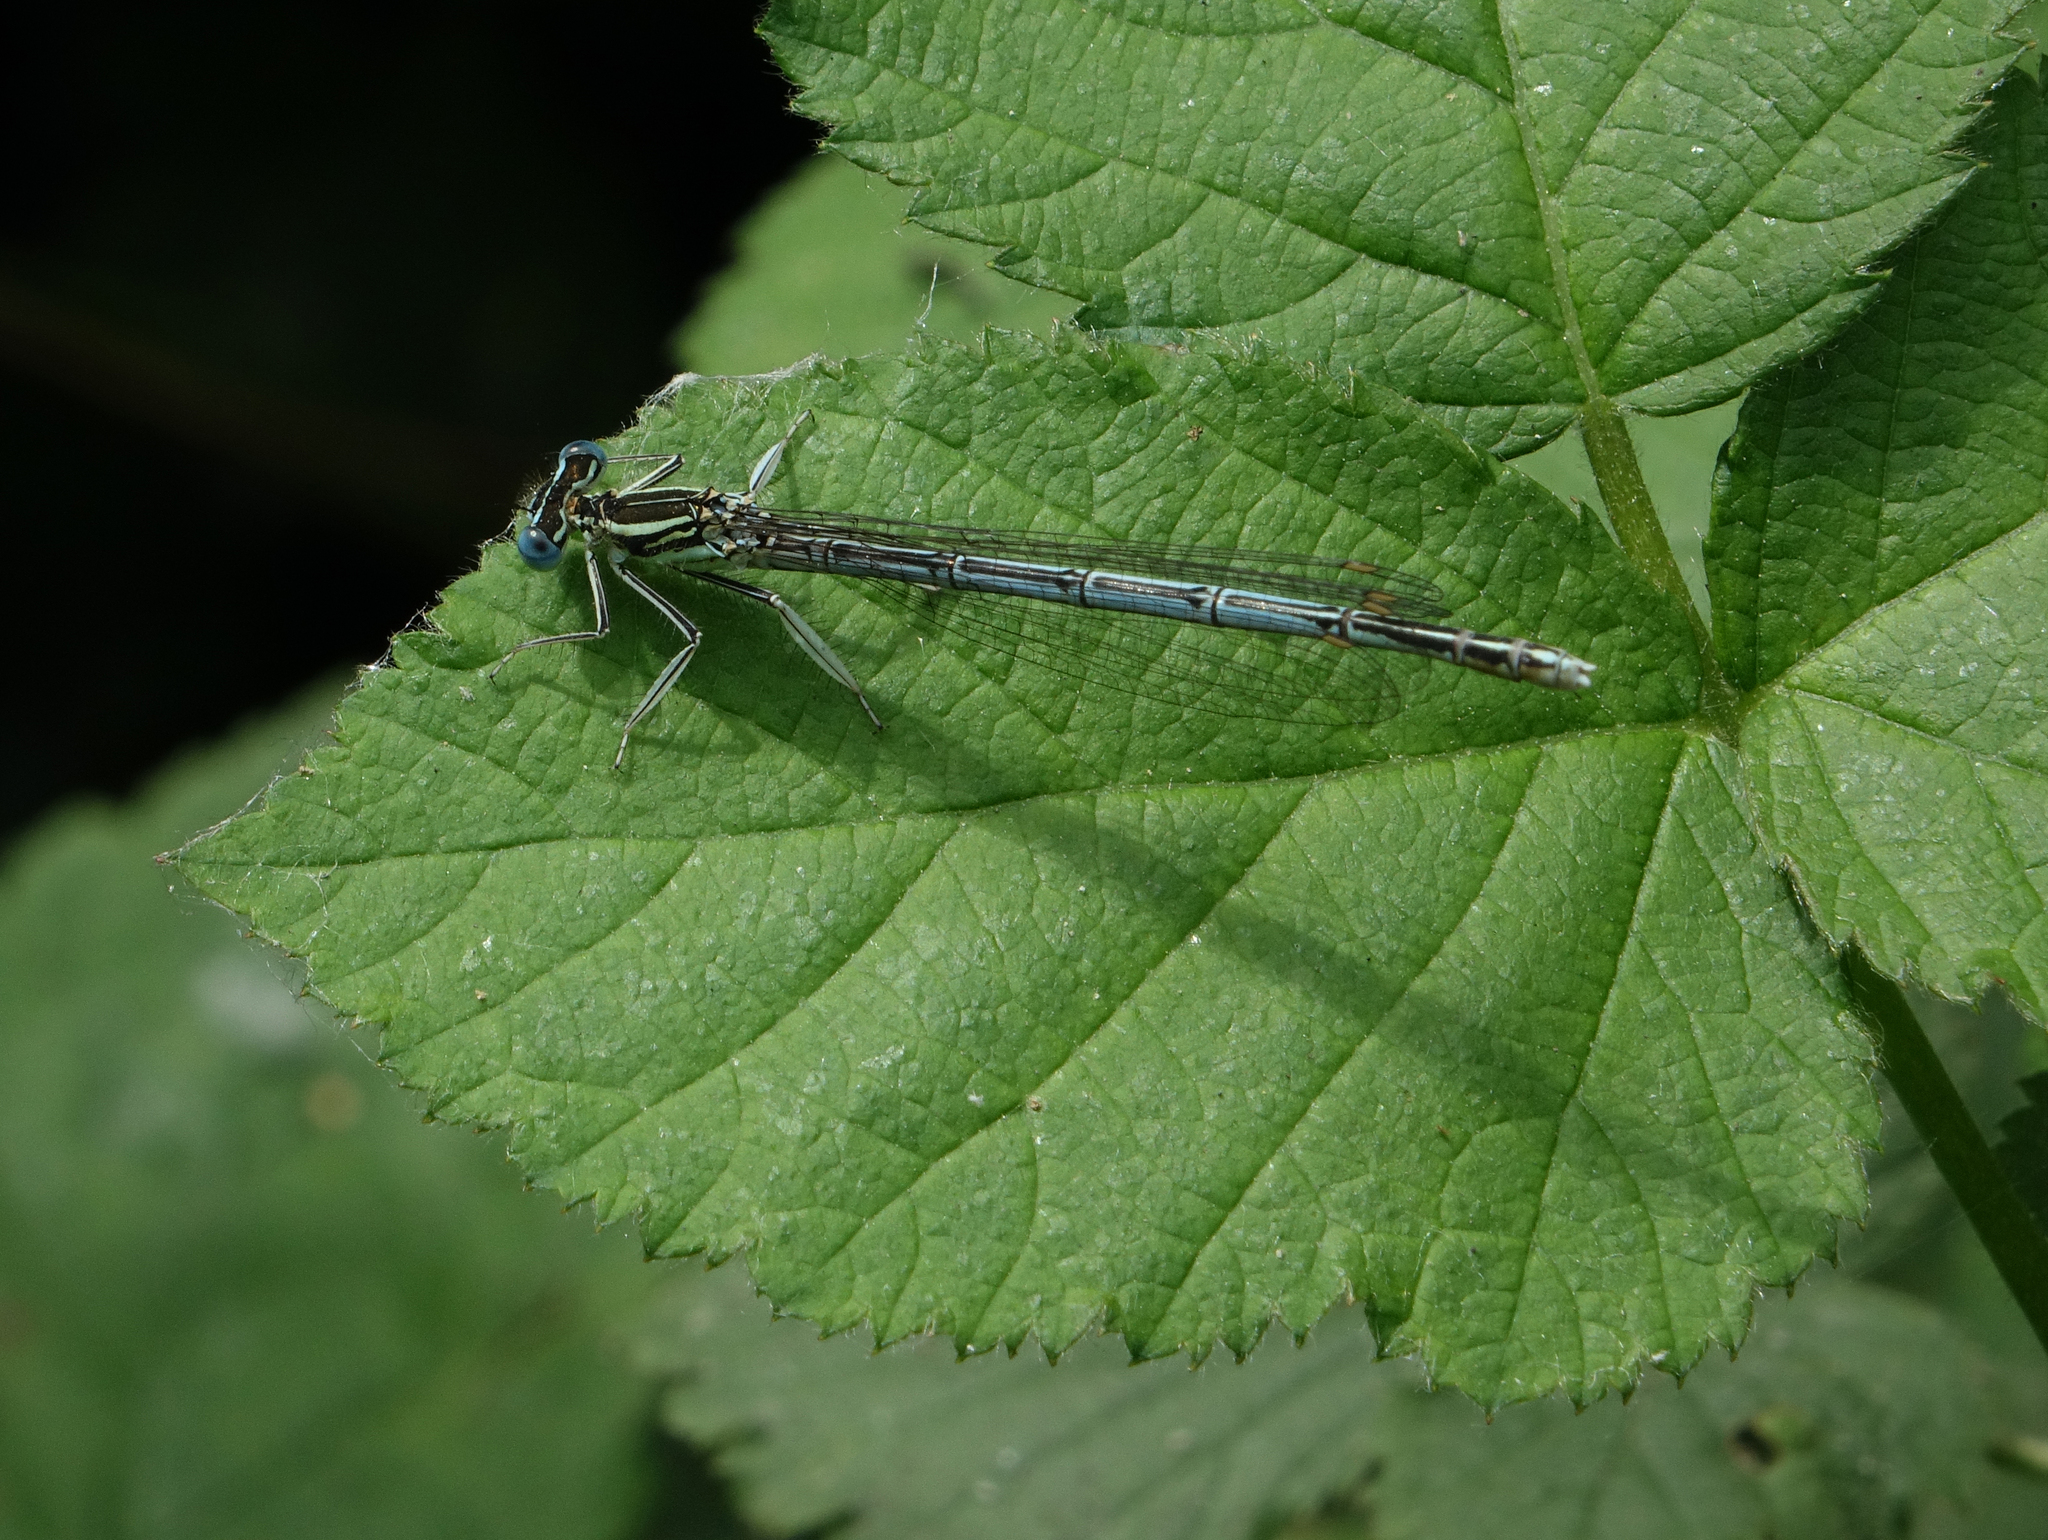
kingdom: Animalia
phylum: Arthropoda
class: Insecta
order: Odonata
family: Platycnemididae
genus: Platycnemis
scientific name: Platycnemis pennipes
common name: White-legged damselfly
